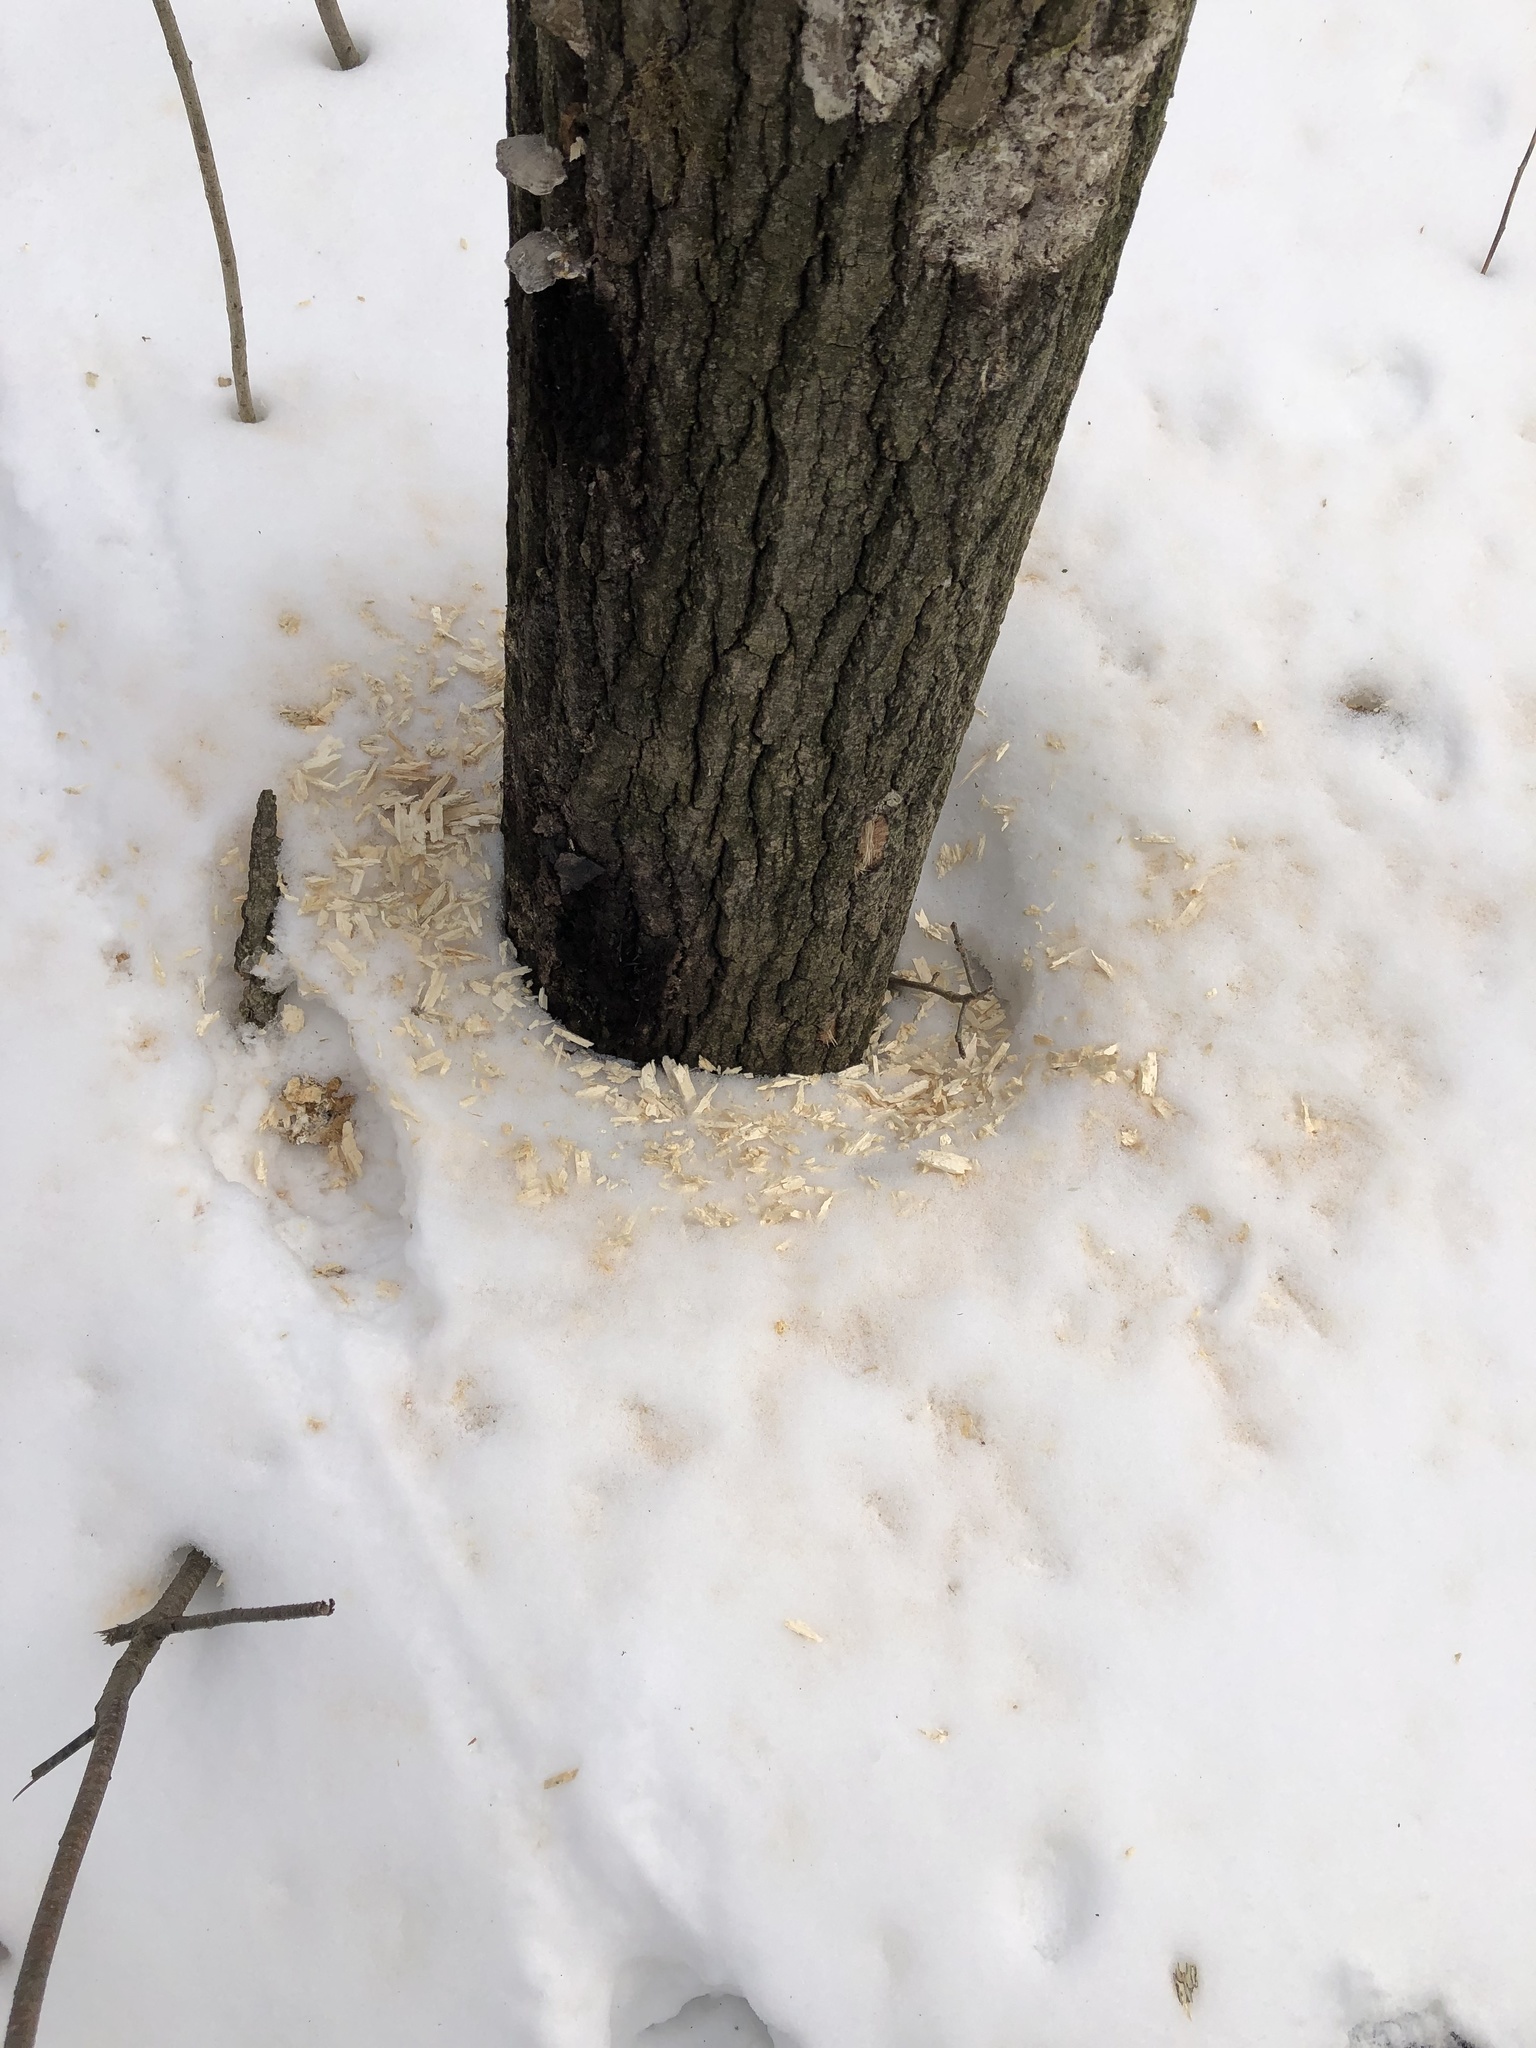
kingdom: Animalia
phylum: Chordata
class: Aves
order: Piciformes
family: Picidae
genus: Dryocopus
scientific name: Dryocopus pileatus
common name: Pileated woodpecker
